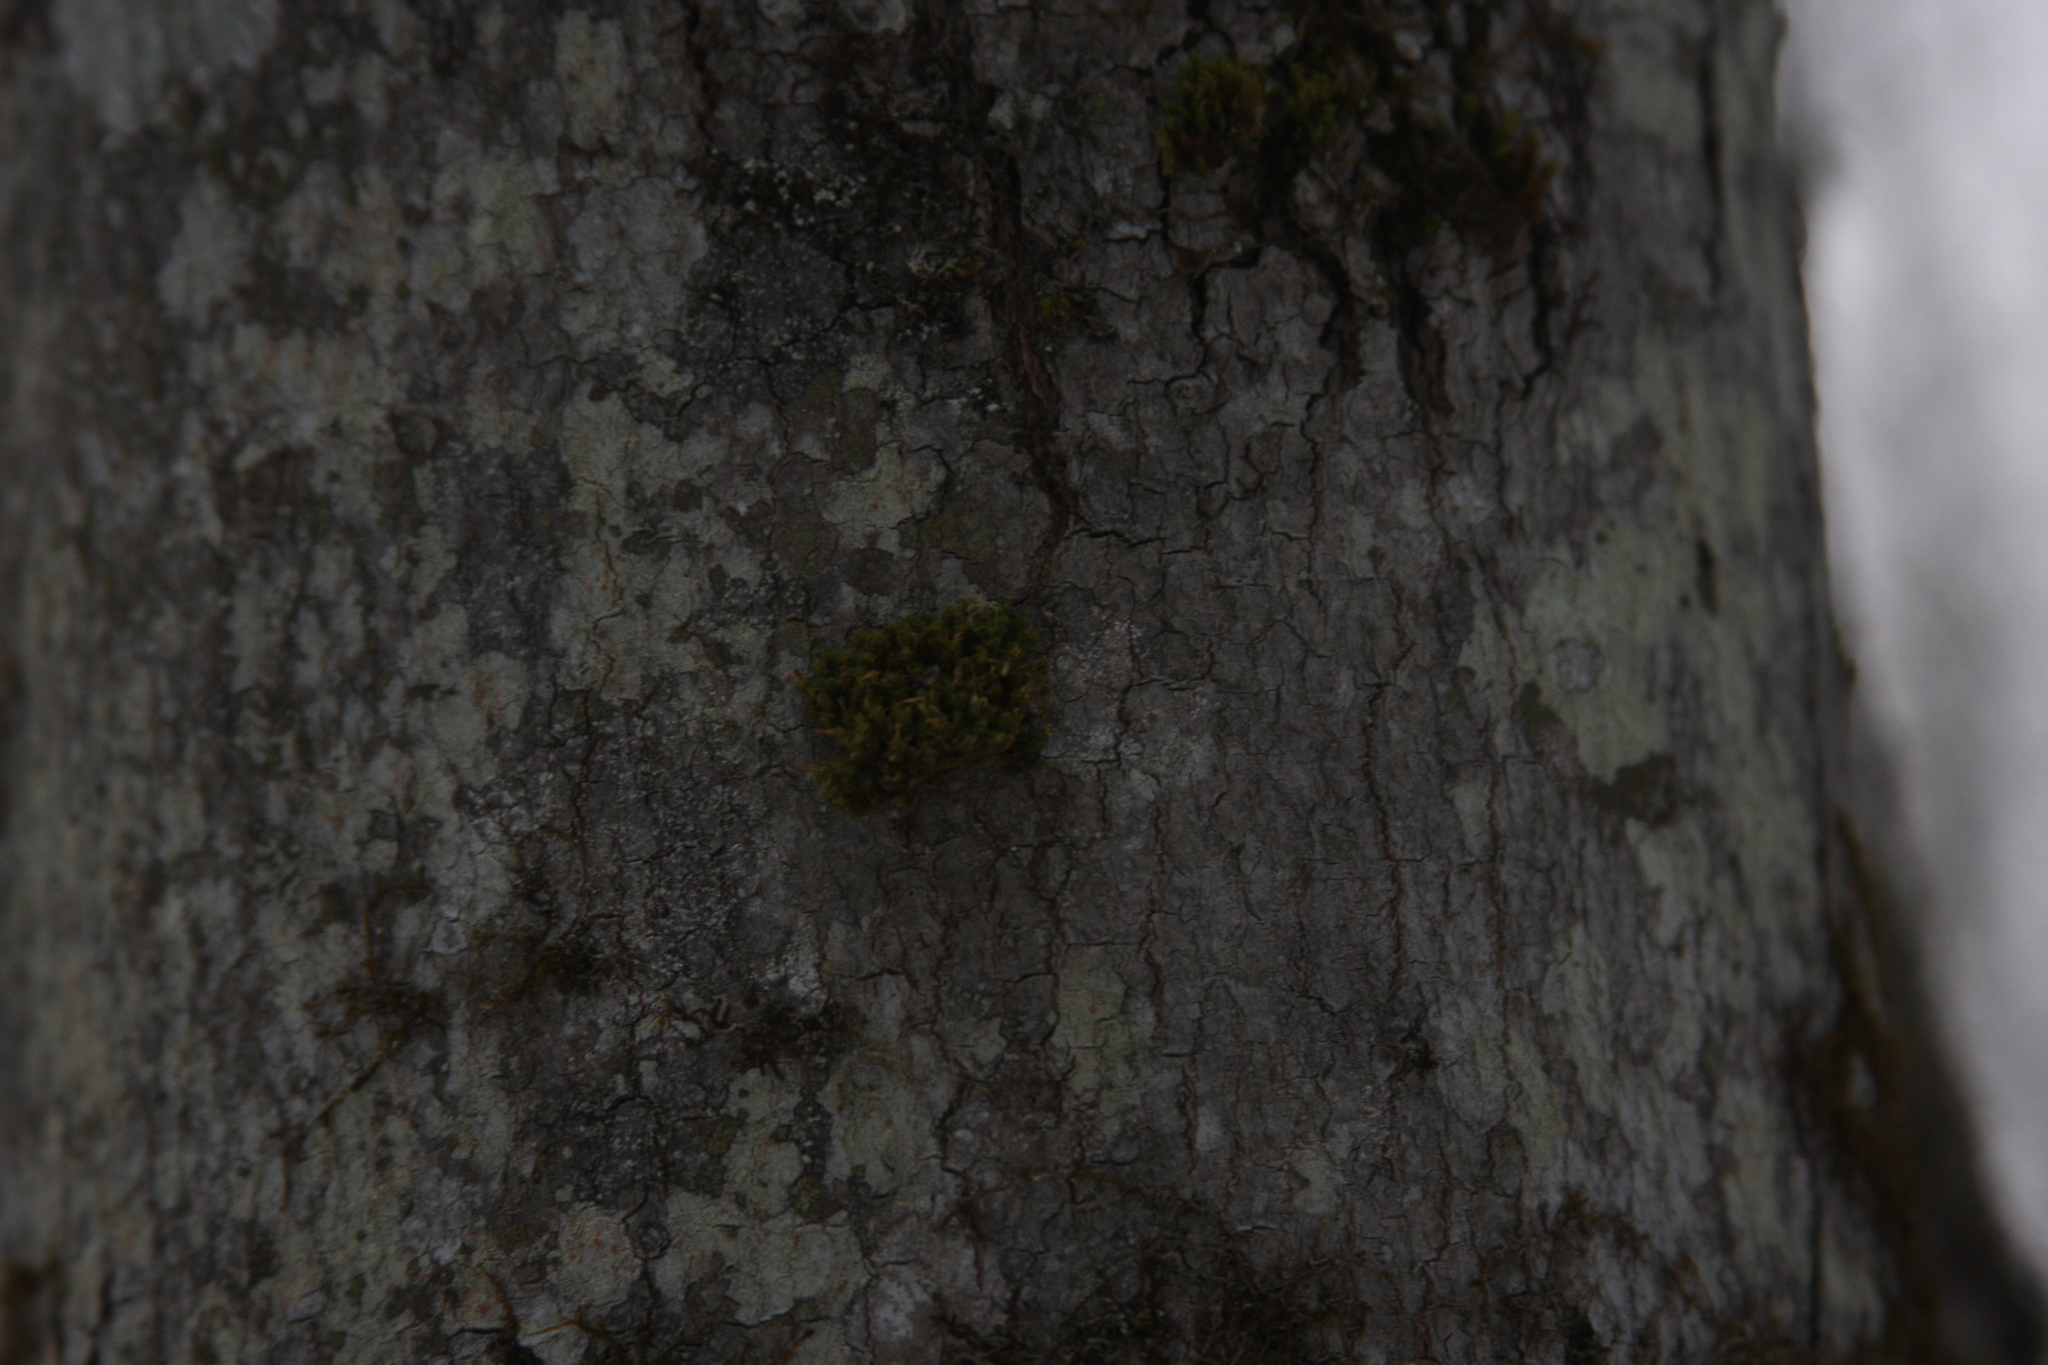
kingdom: Plantae
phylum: Bryophyta
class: Bryopsida
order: Orthotrichales
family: Orthotrichaceae
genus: Ulota
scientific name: Ulota crispa
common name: Crisped pincushion moss
